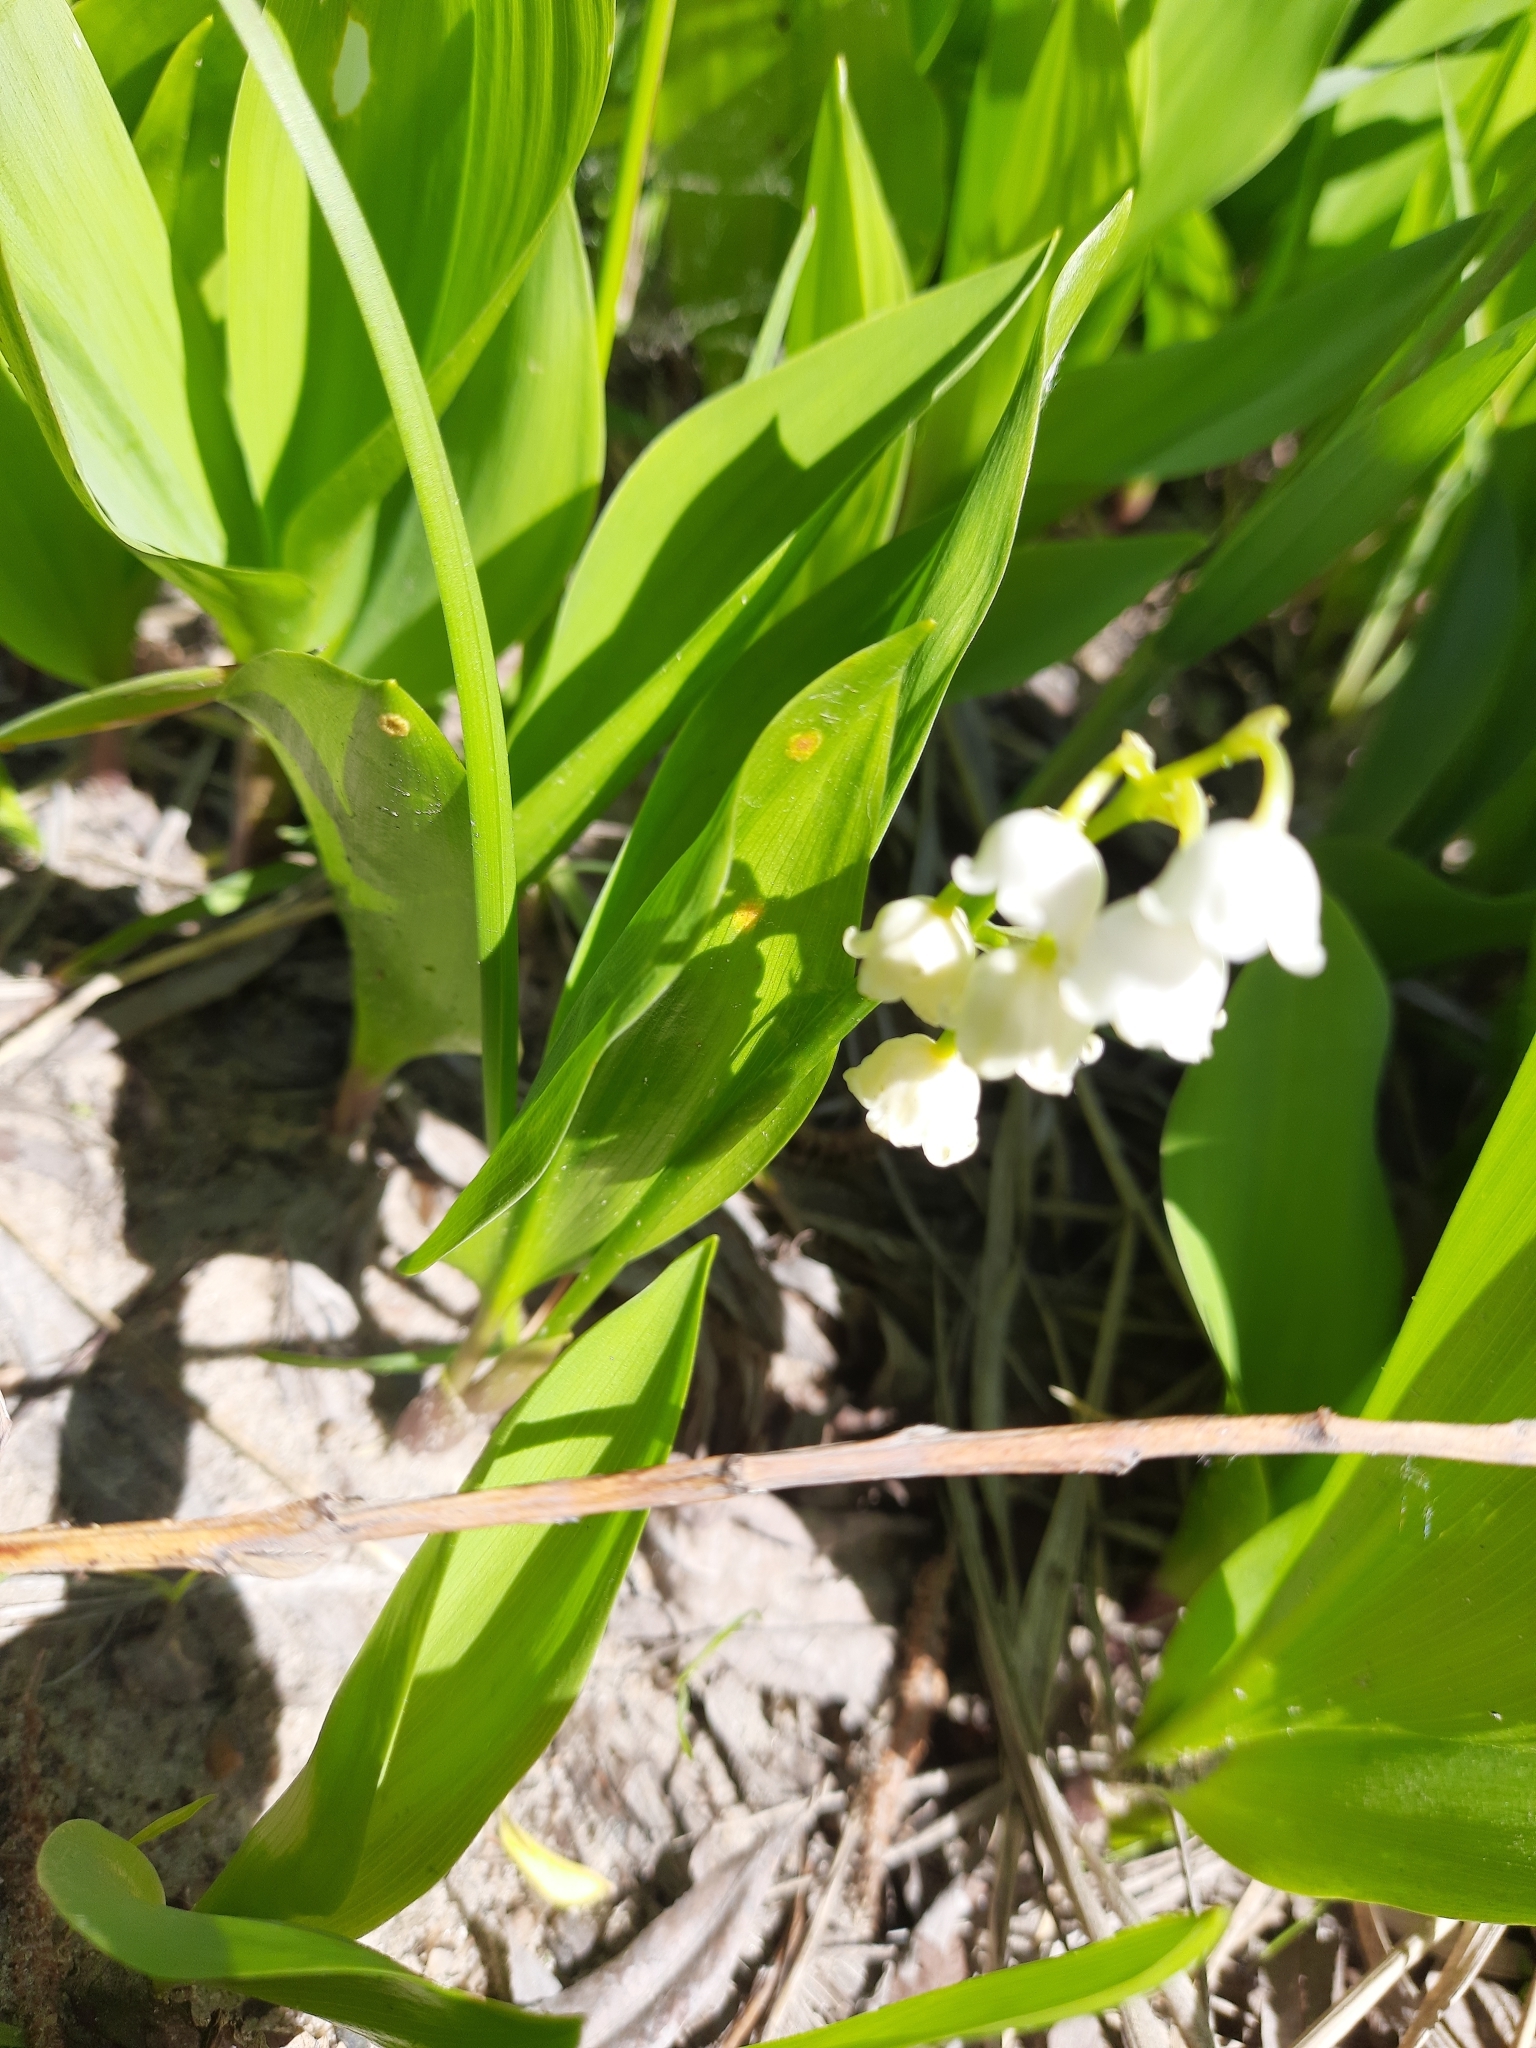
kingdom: Plantae
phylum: Tracheophyta
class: Liliopsida
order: Asparagales
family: Asparagaceae
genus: Convallaria
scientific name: Convallaria majalis
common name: Lily-of-the-valley
